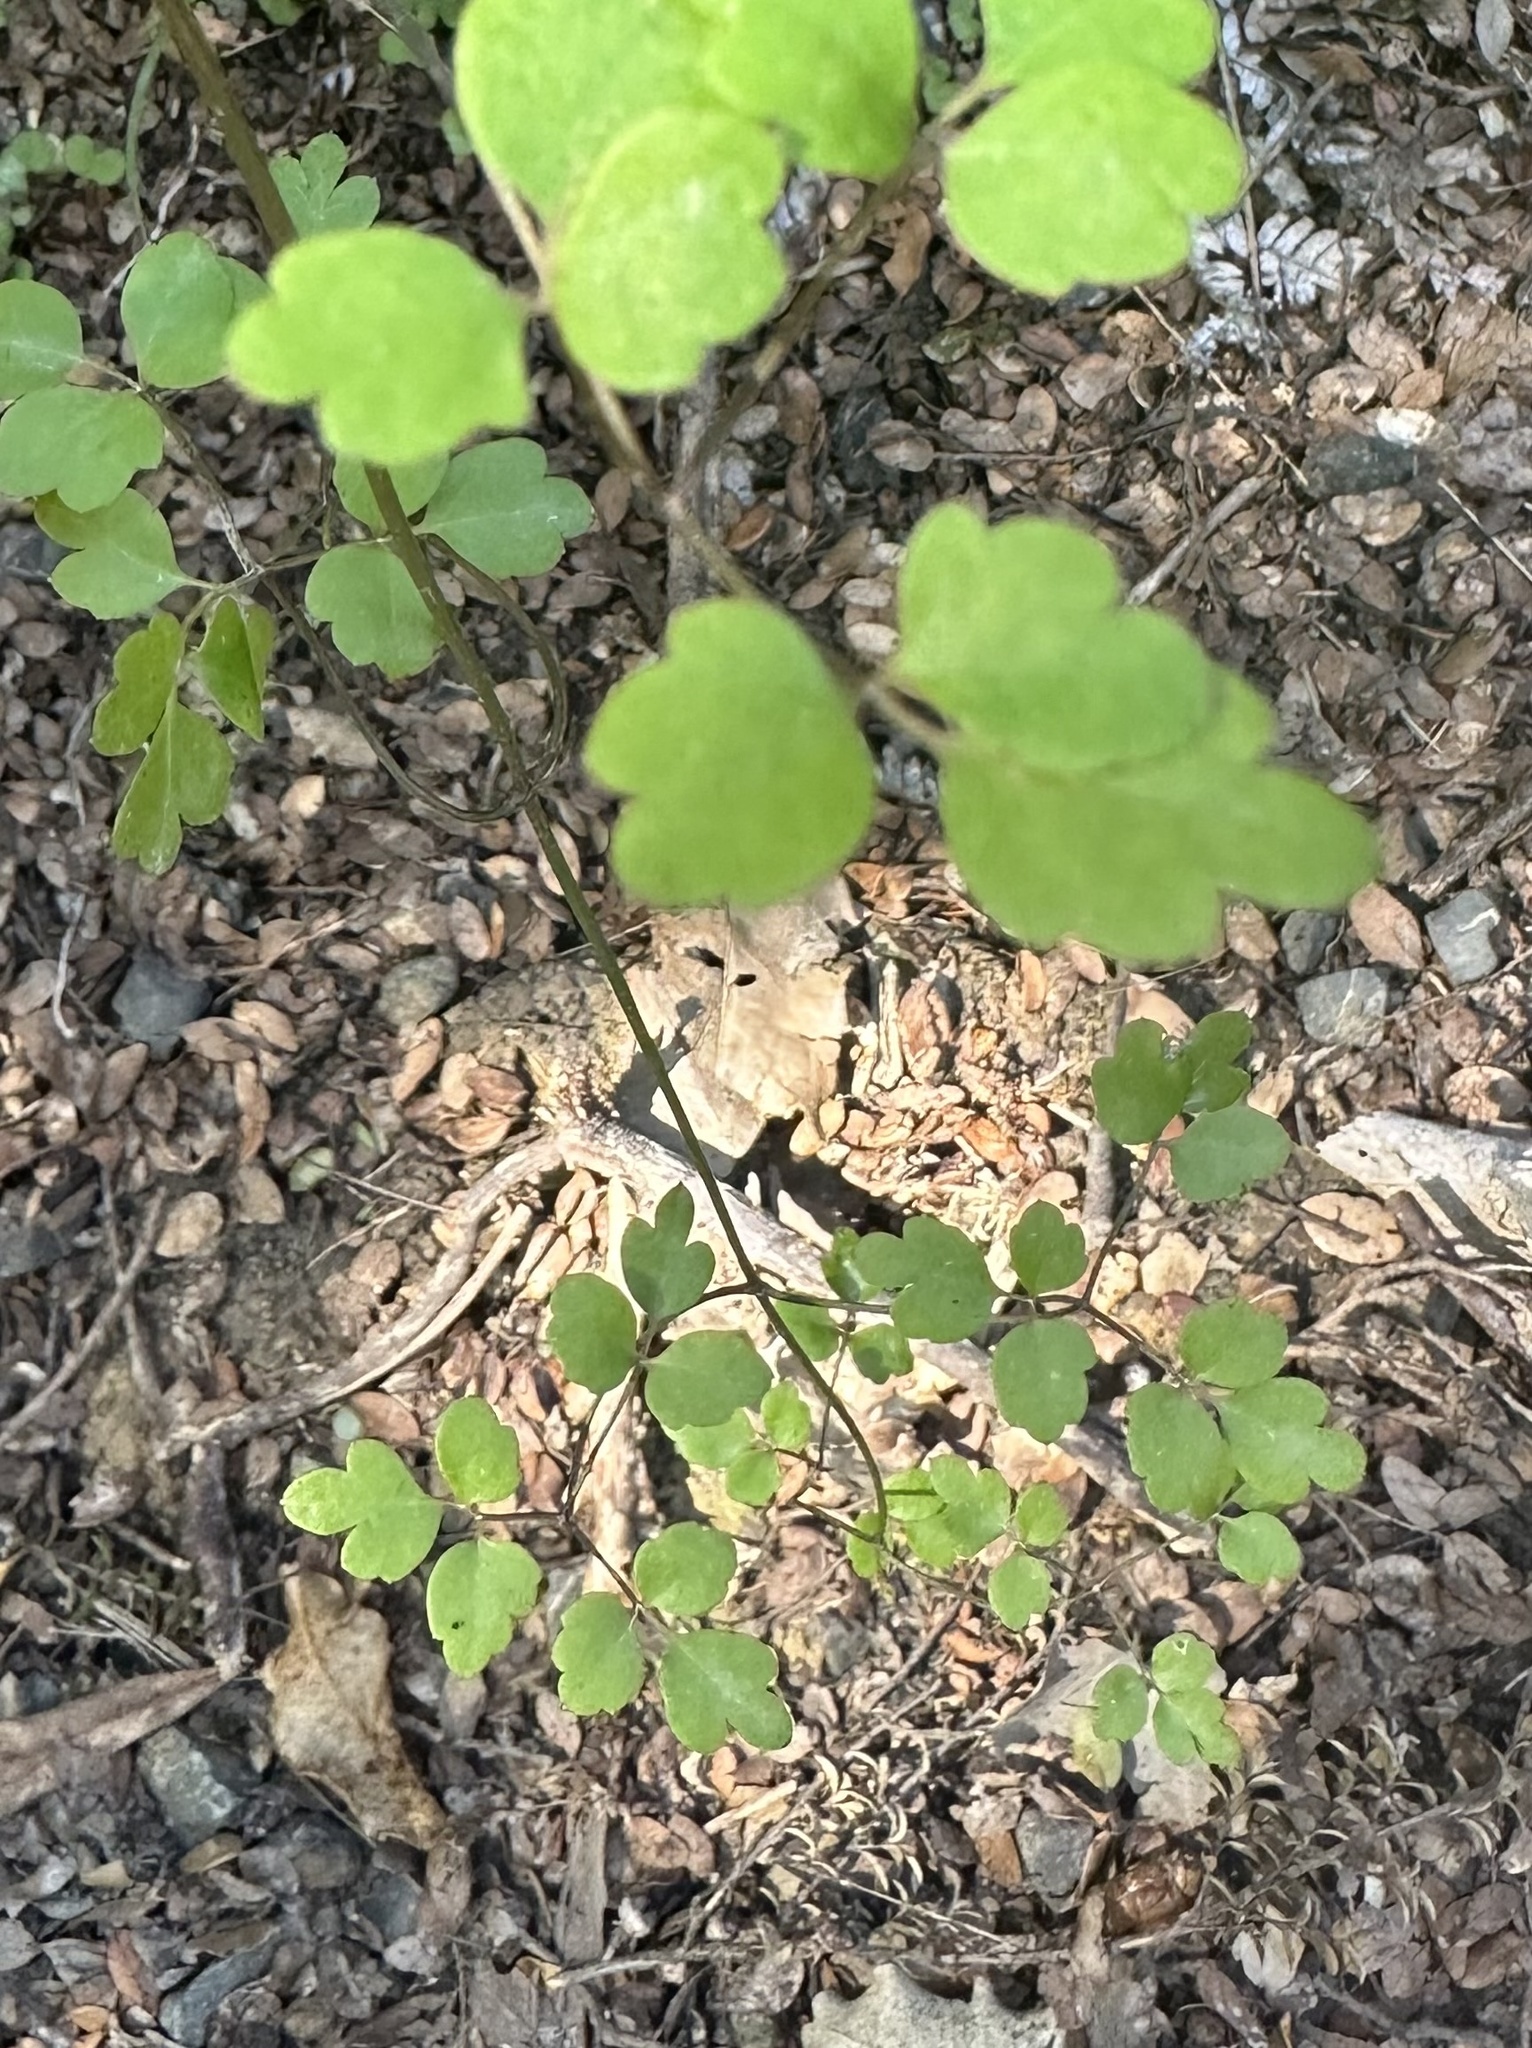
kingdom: Plantae
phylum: Tracheophyta
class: Magnoliopsida
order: Ranunculales
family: Ranunculaceae
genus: Clematis
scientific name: Clematis forsteri
